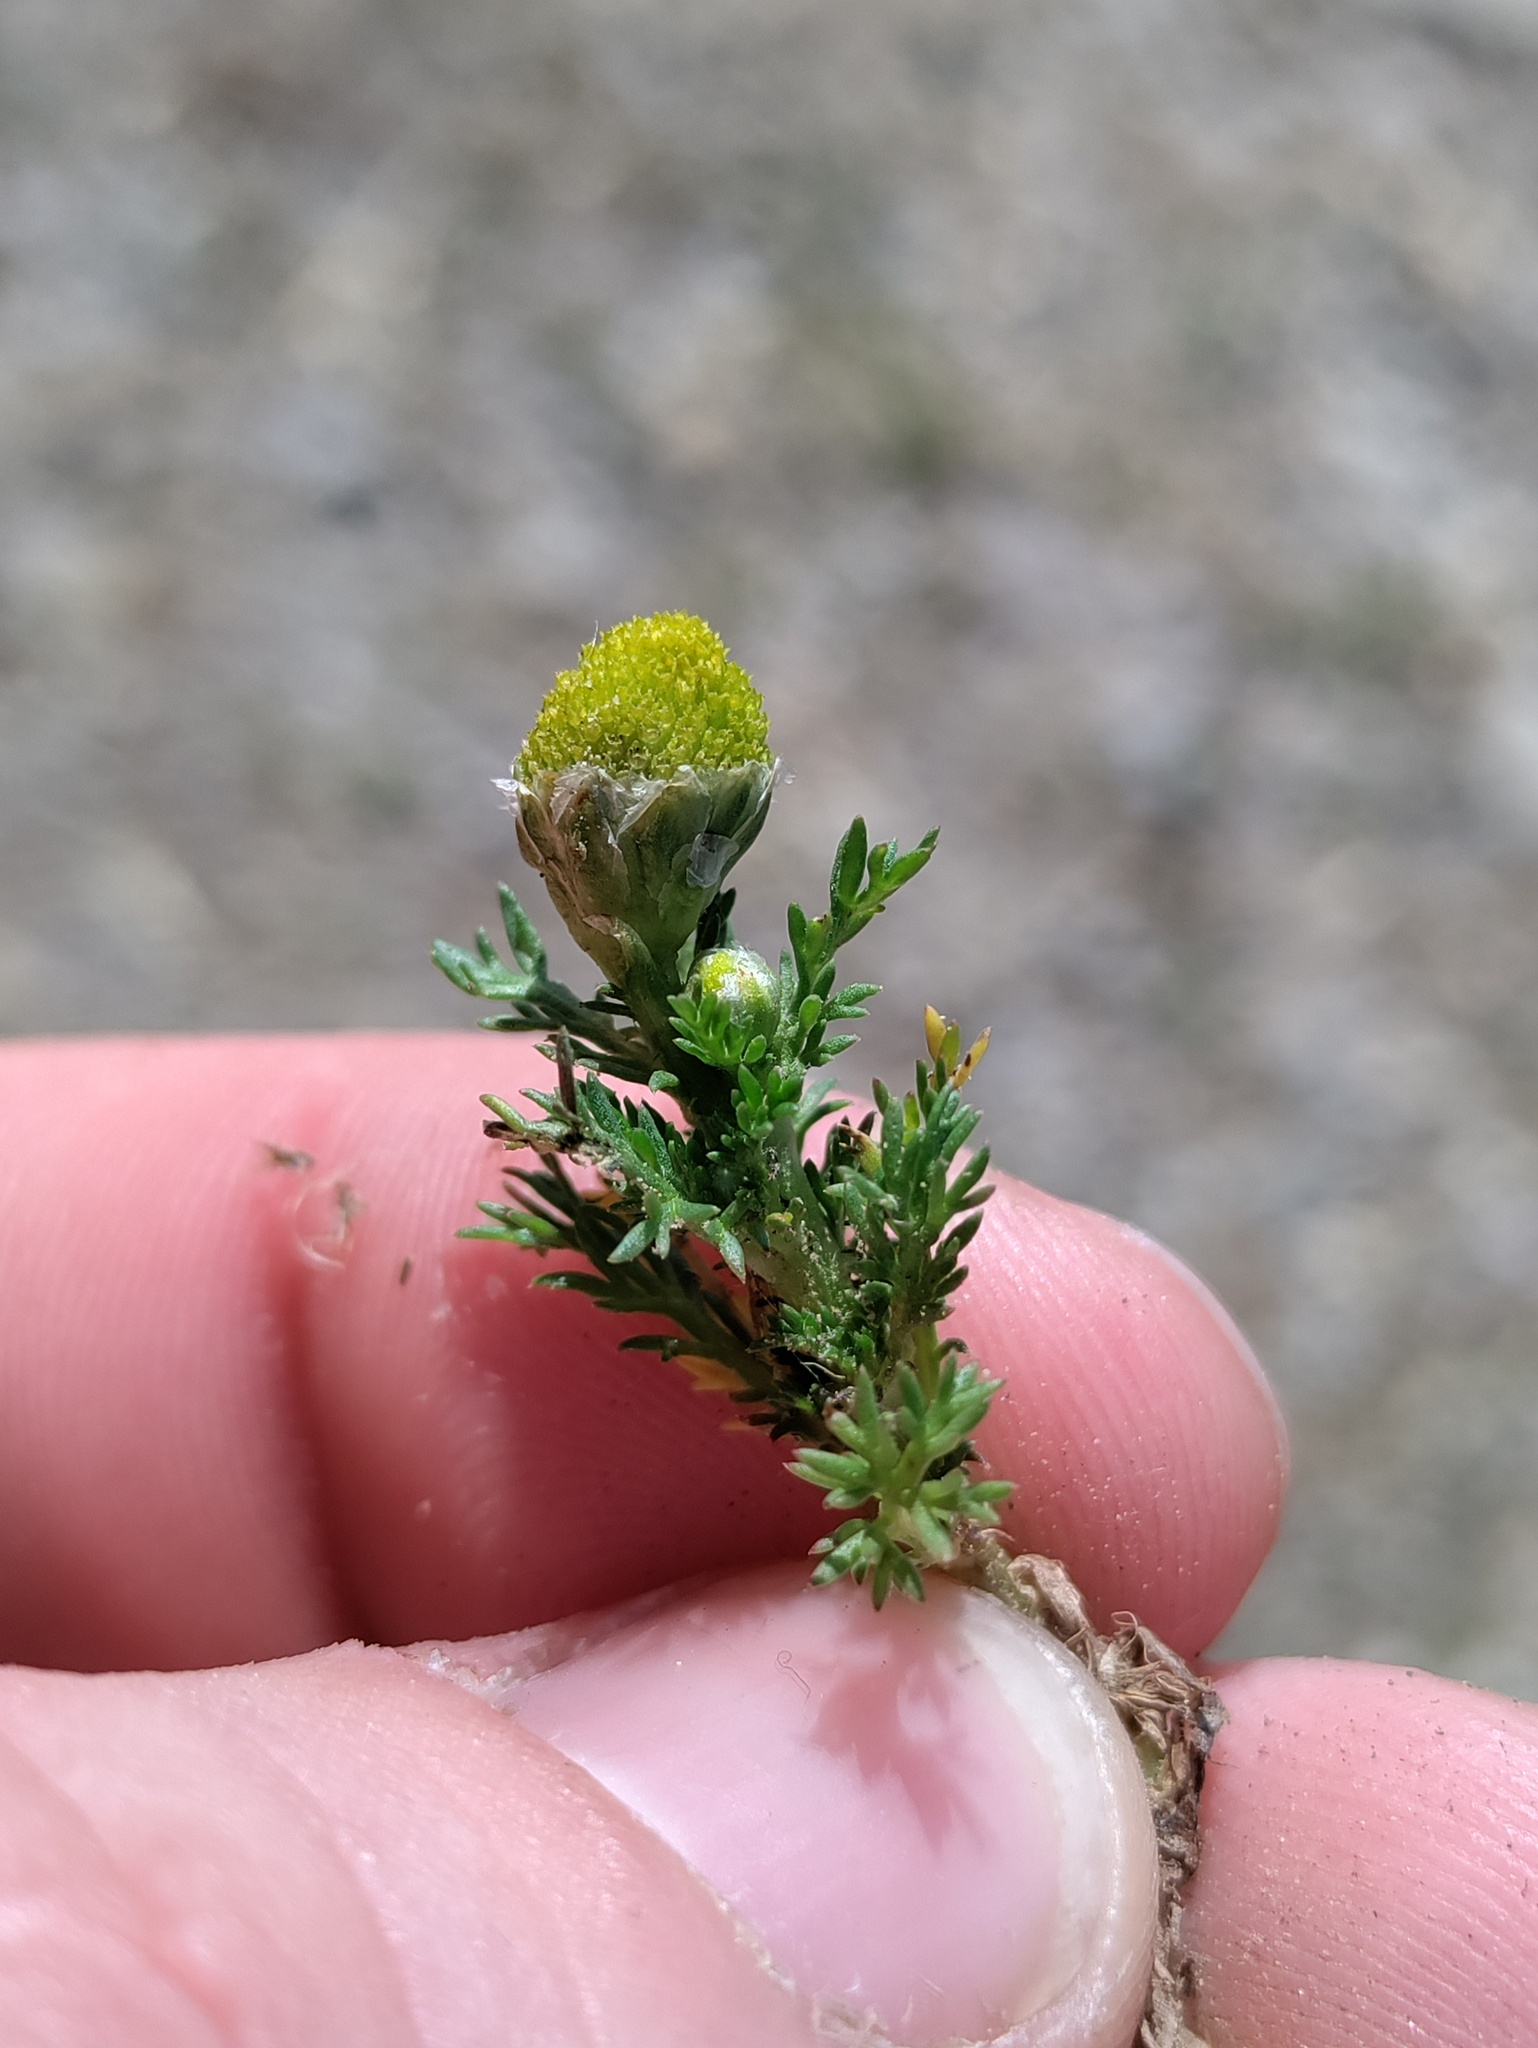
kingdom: Plantae
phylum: Tracheophyta
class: Magnoliopsida
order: Asterales
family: Asteraceae
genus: Matricaria
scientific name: Matricaria discoidea
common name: Disc mayweed
